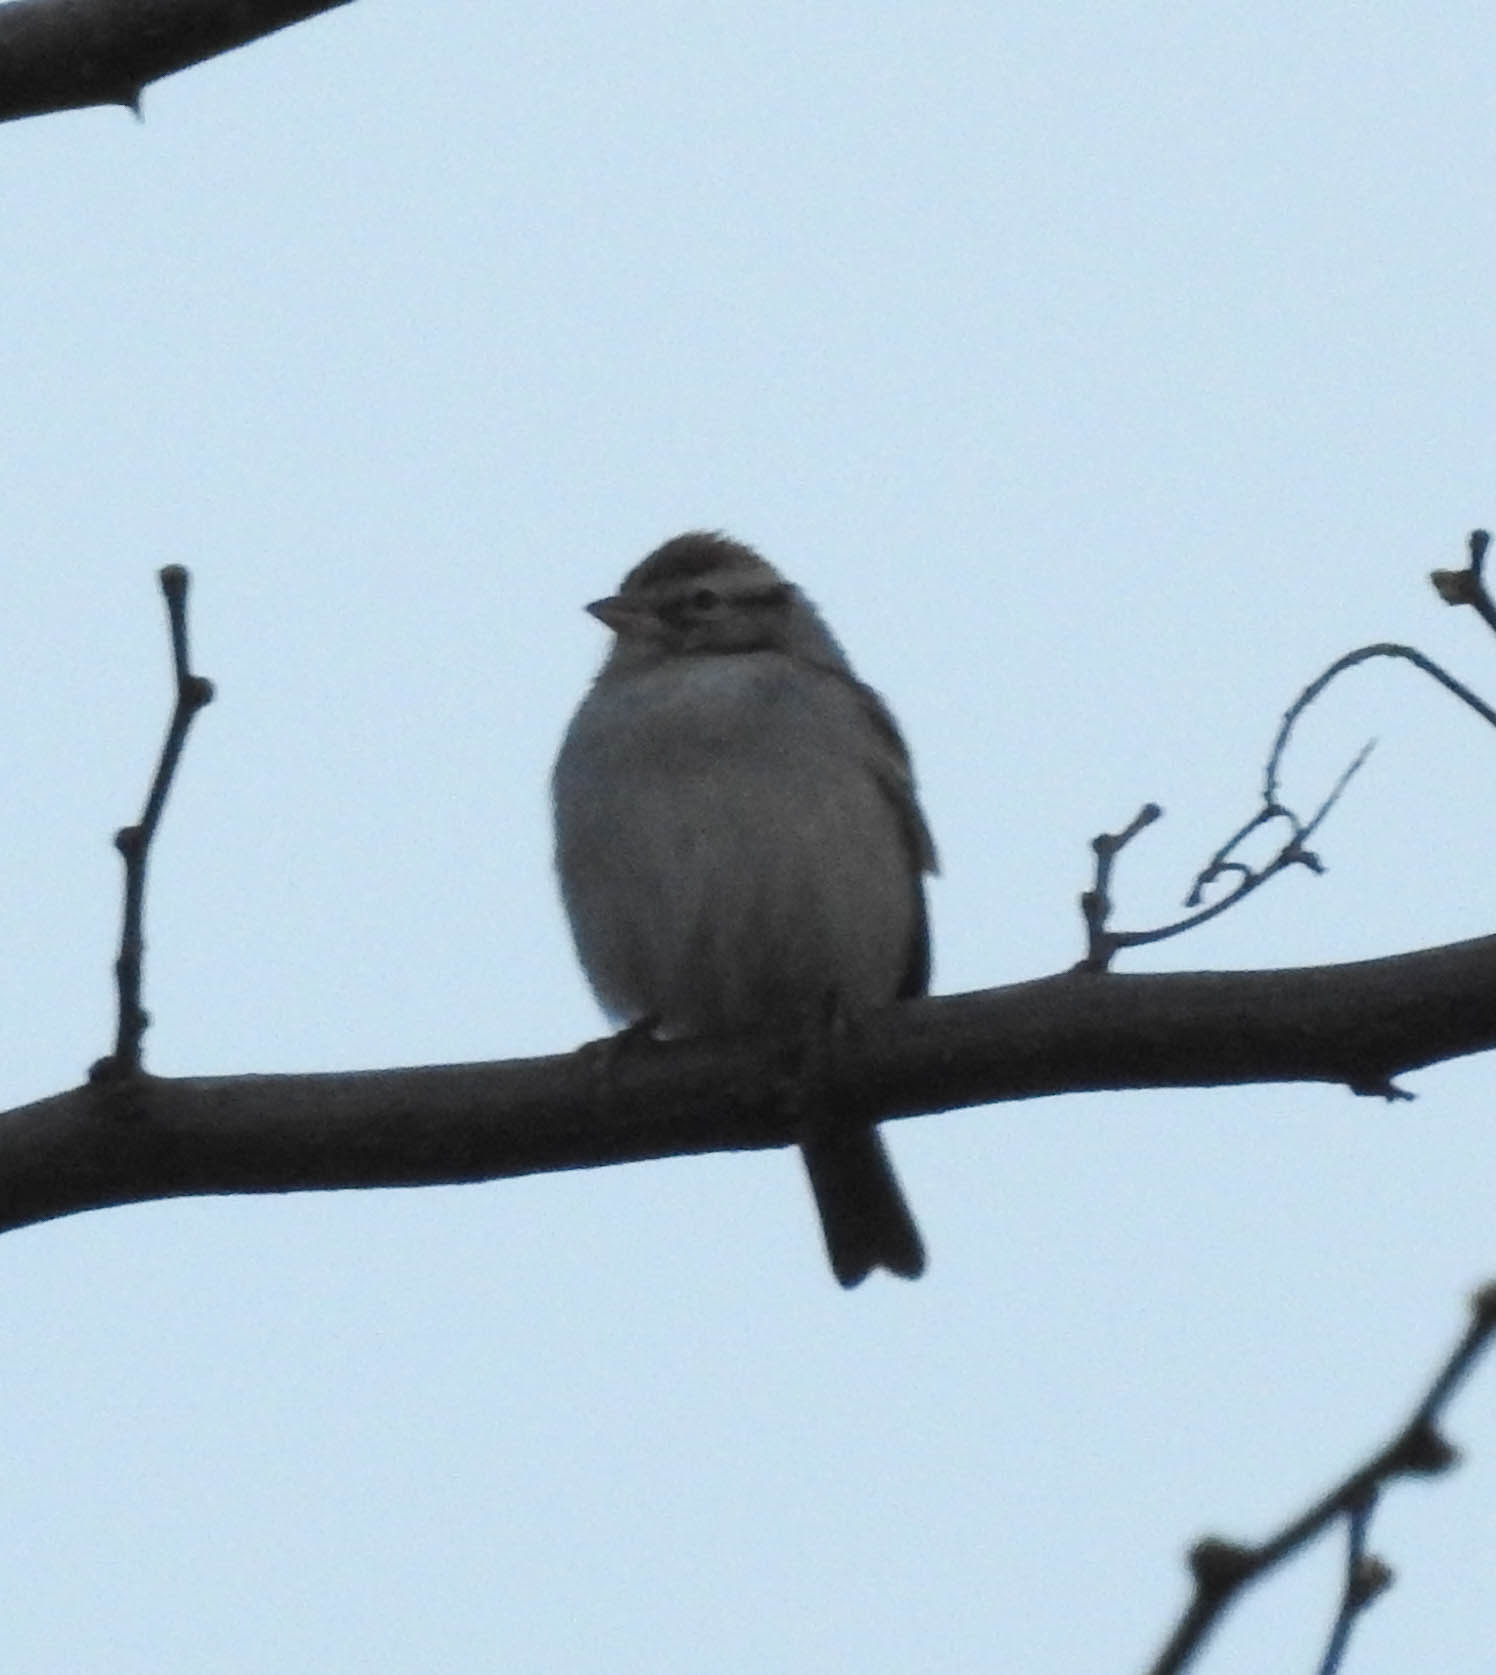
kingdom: Animalia
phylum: Chordata
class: Aves
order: Passeriformes
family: Passerellidae
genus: Spizella
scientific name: Spizella passerina
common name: Chipping sparrow
